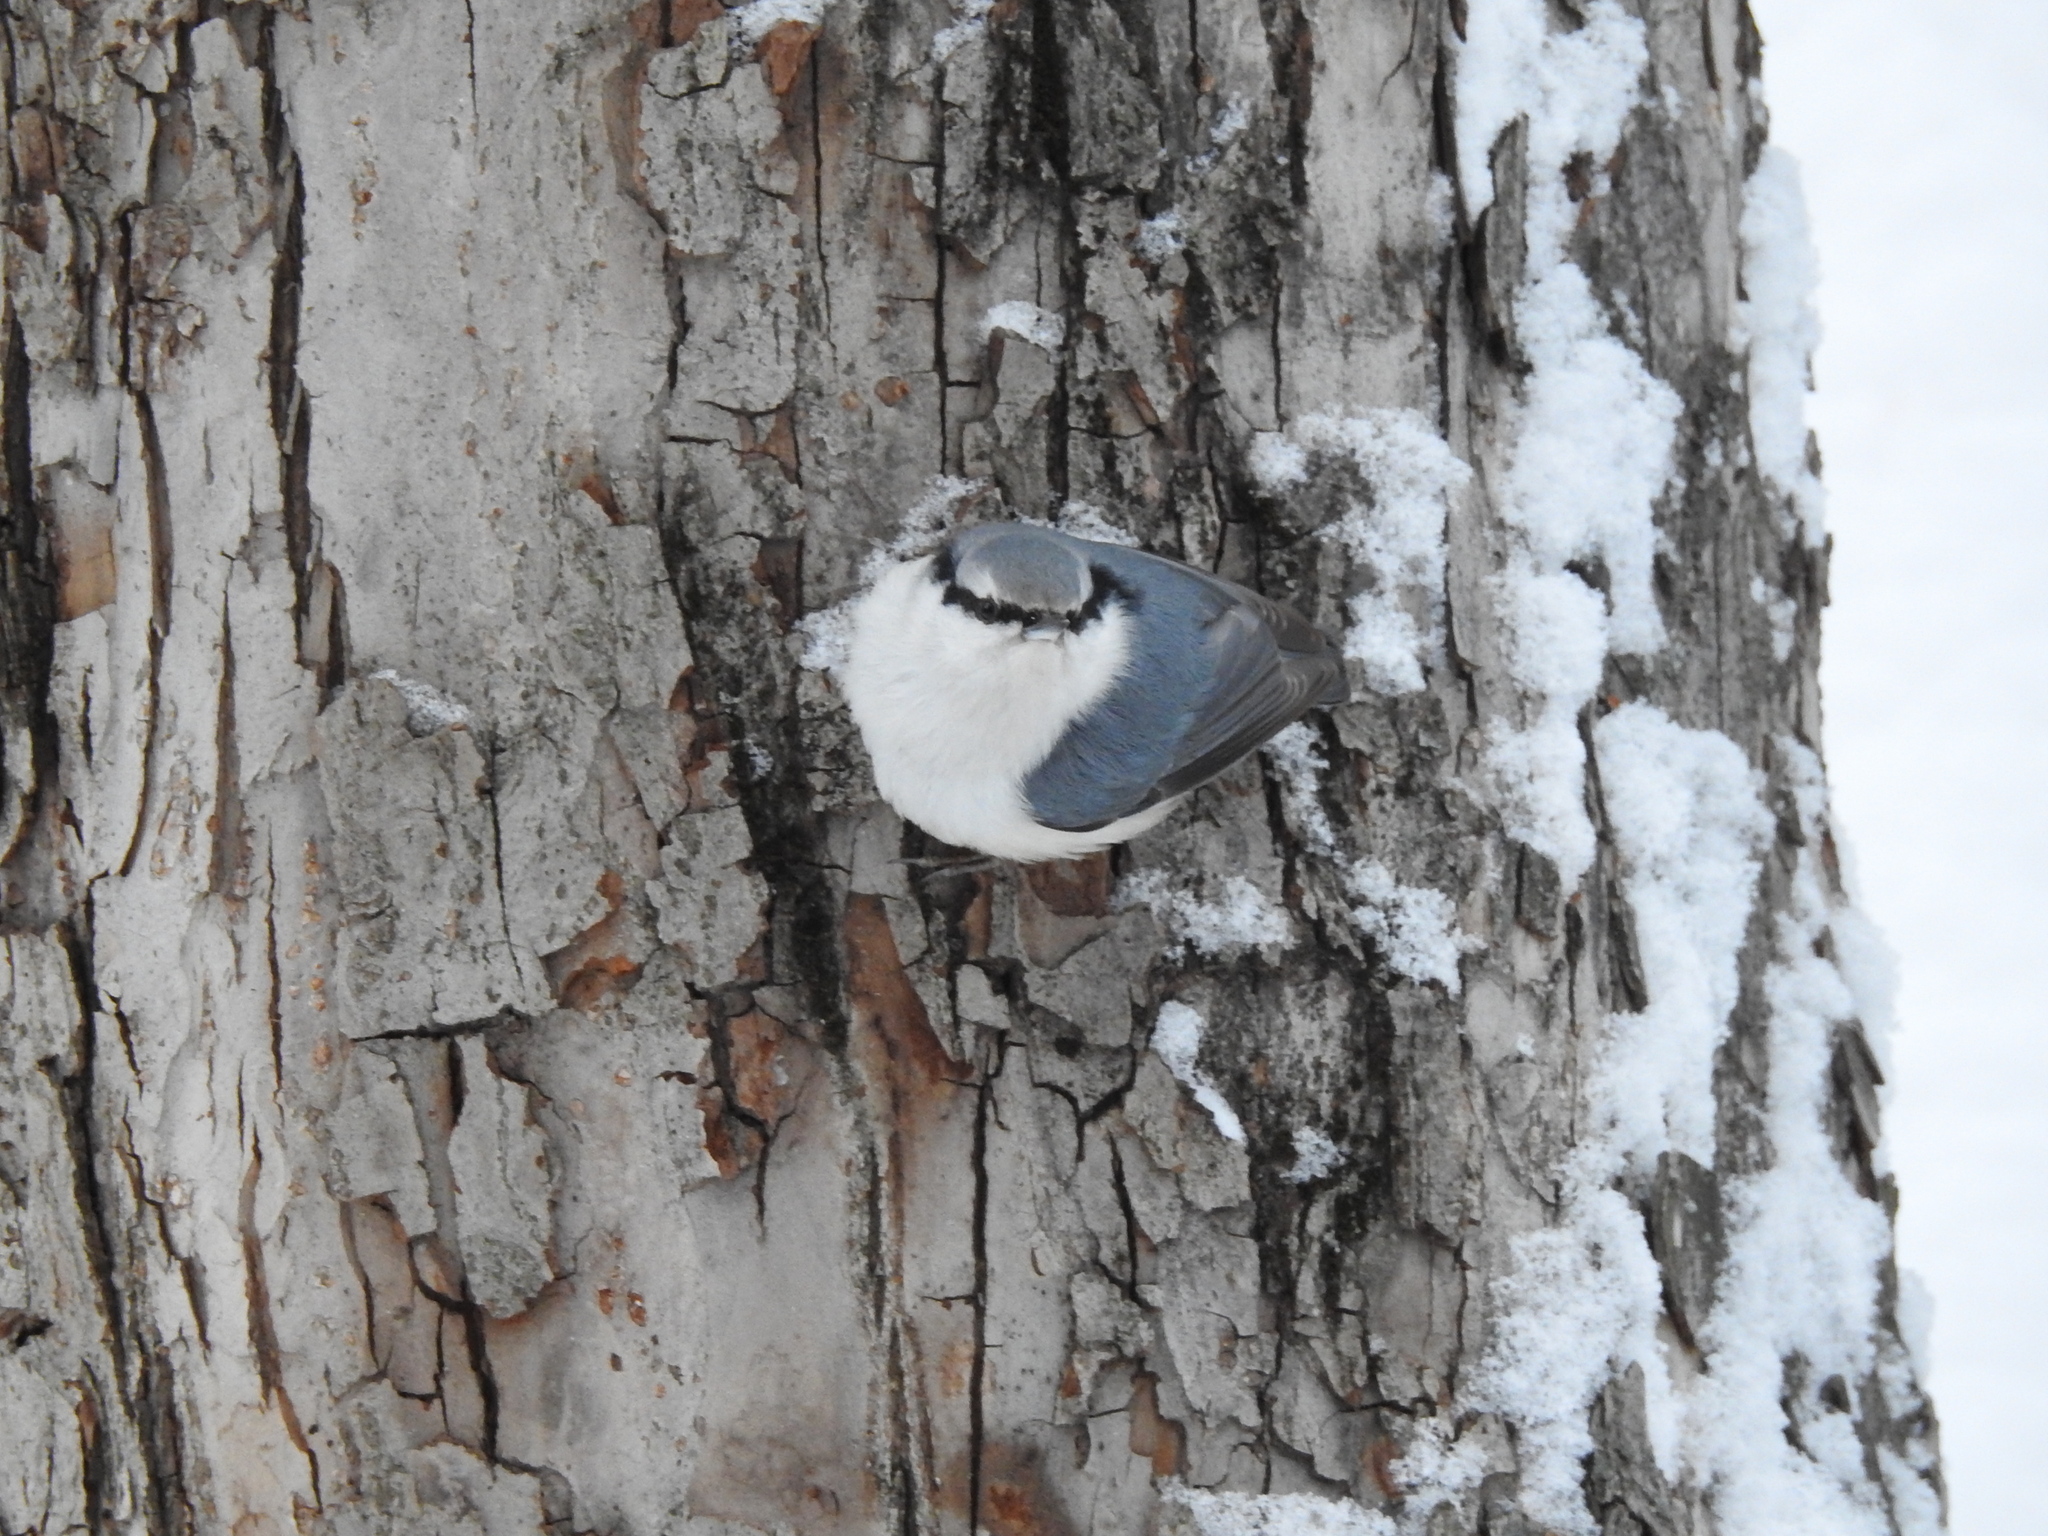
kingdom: Animalia
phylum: Chordata
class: Aves
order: Passeriformes
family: Sittidae
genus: Sitta
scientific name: Sitta europaea
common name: Eurasian nuthatch
